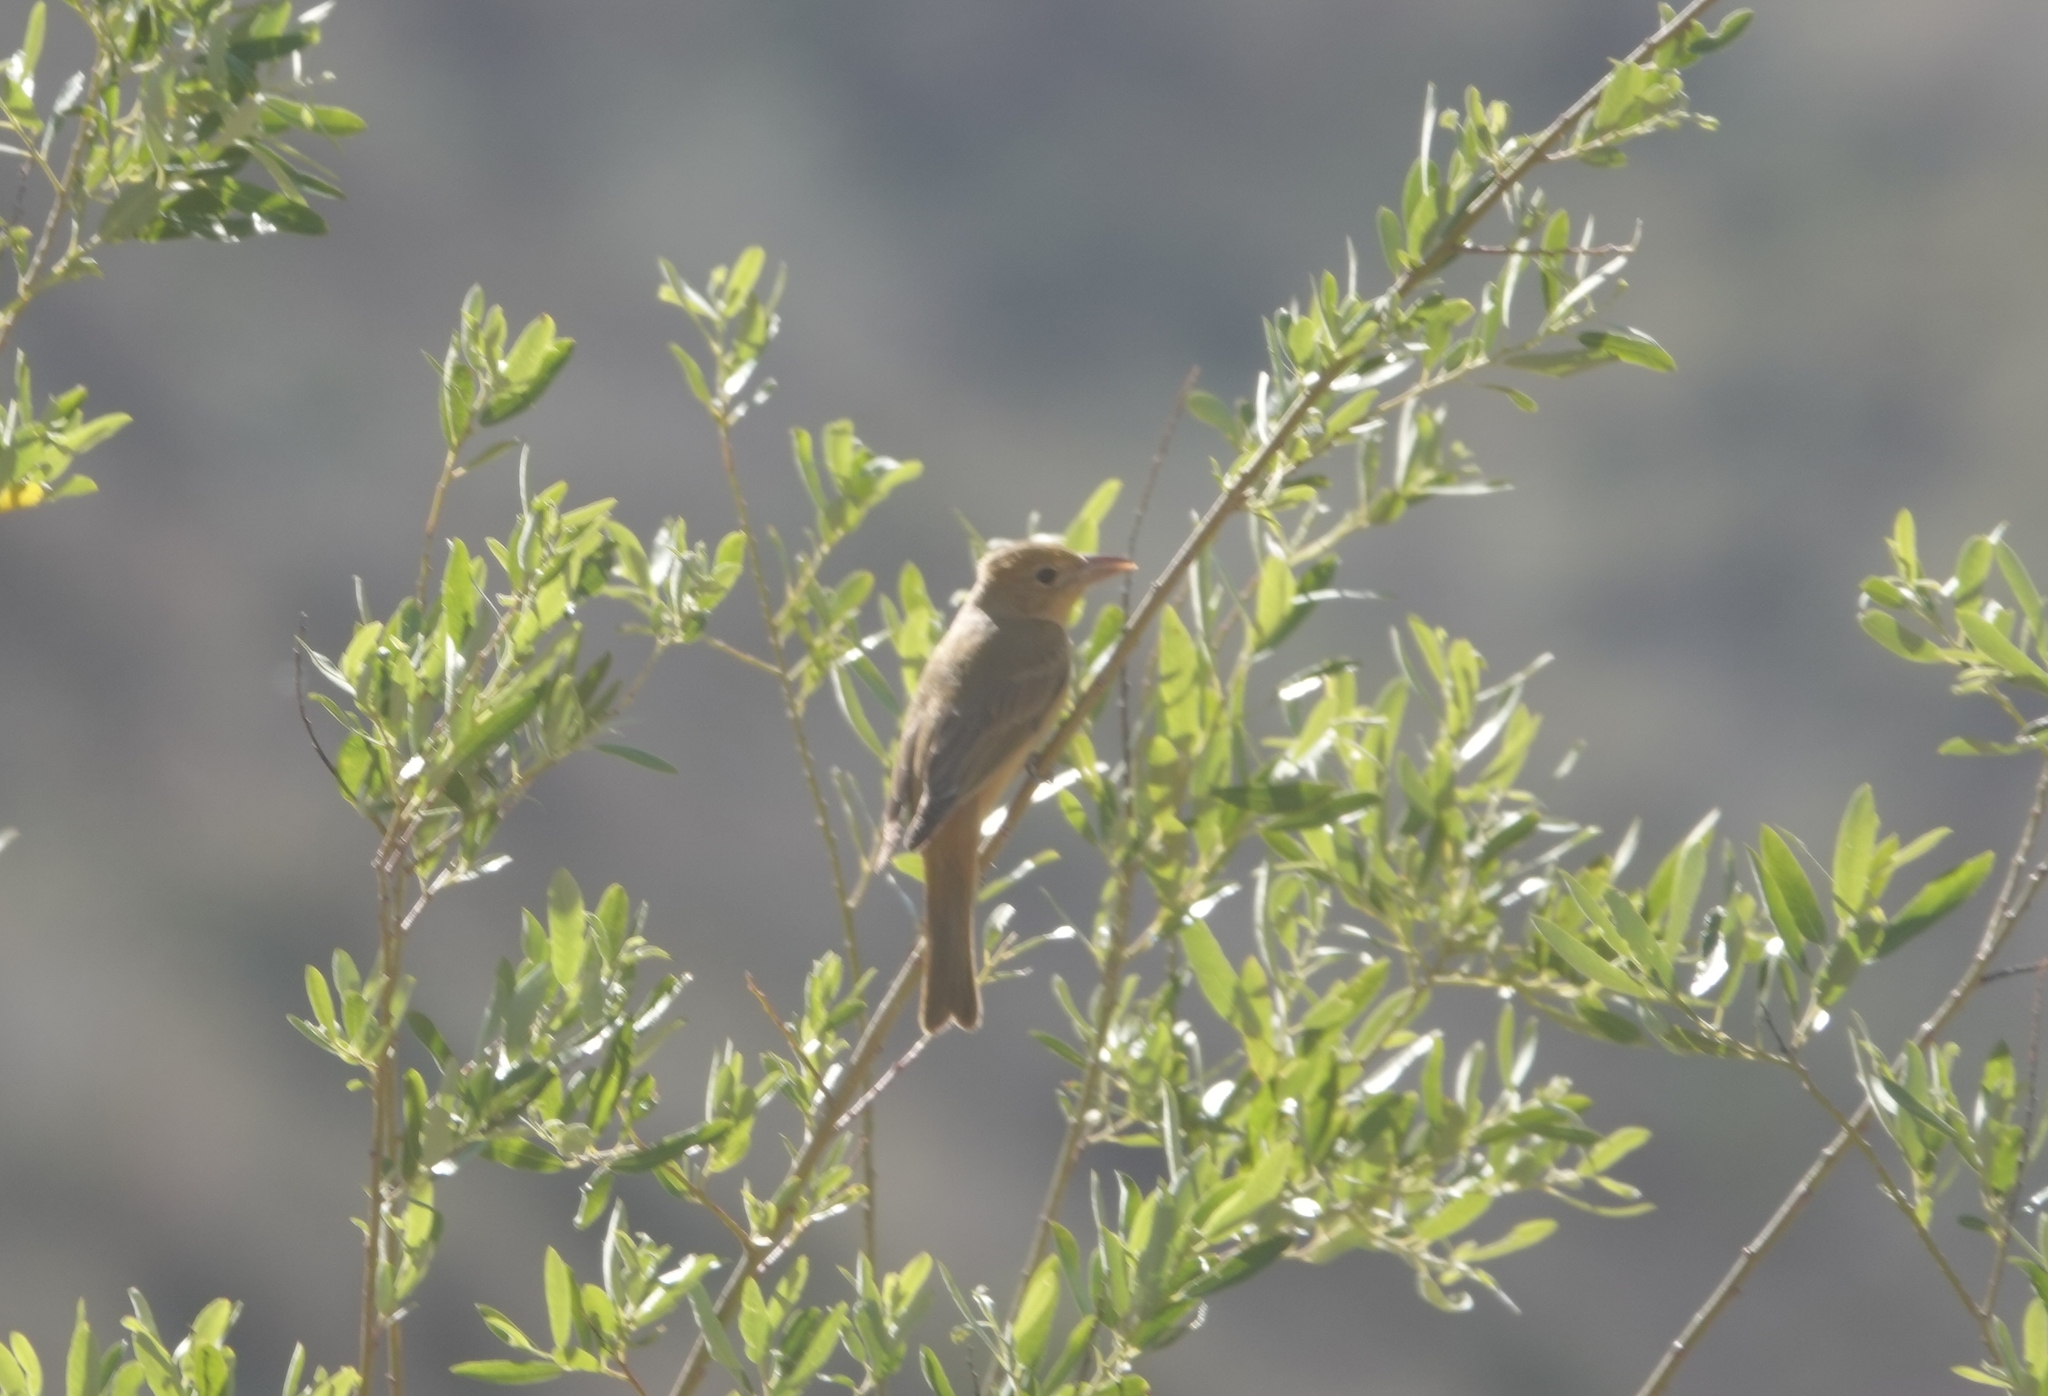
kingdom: Animalia
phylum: Chordata
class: Aves
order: Passeriformes
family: Cardinalidae
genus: Piranga
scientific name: Piranga rubra
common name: Summer tanager
